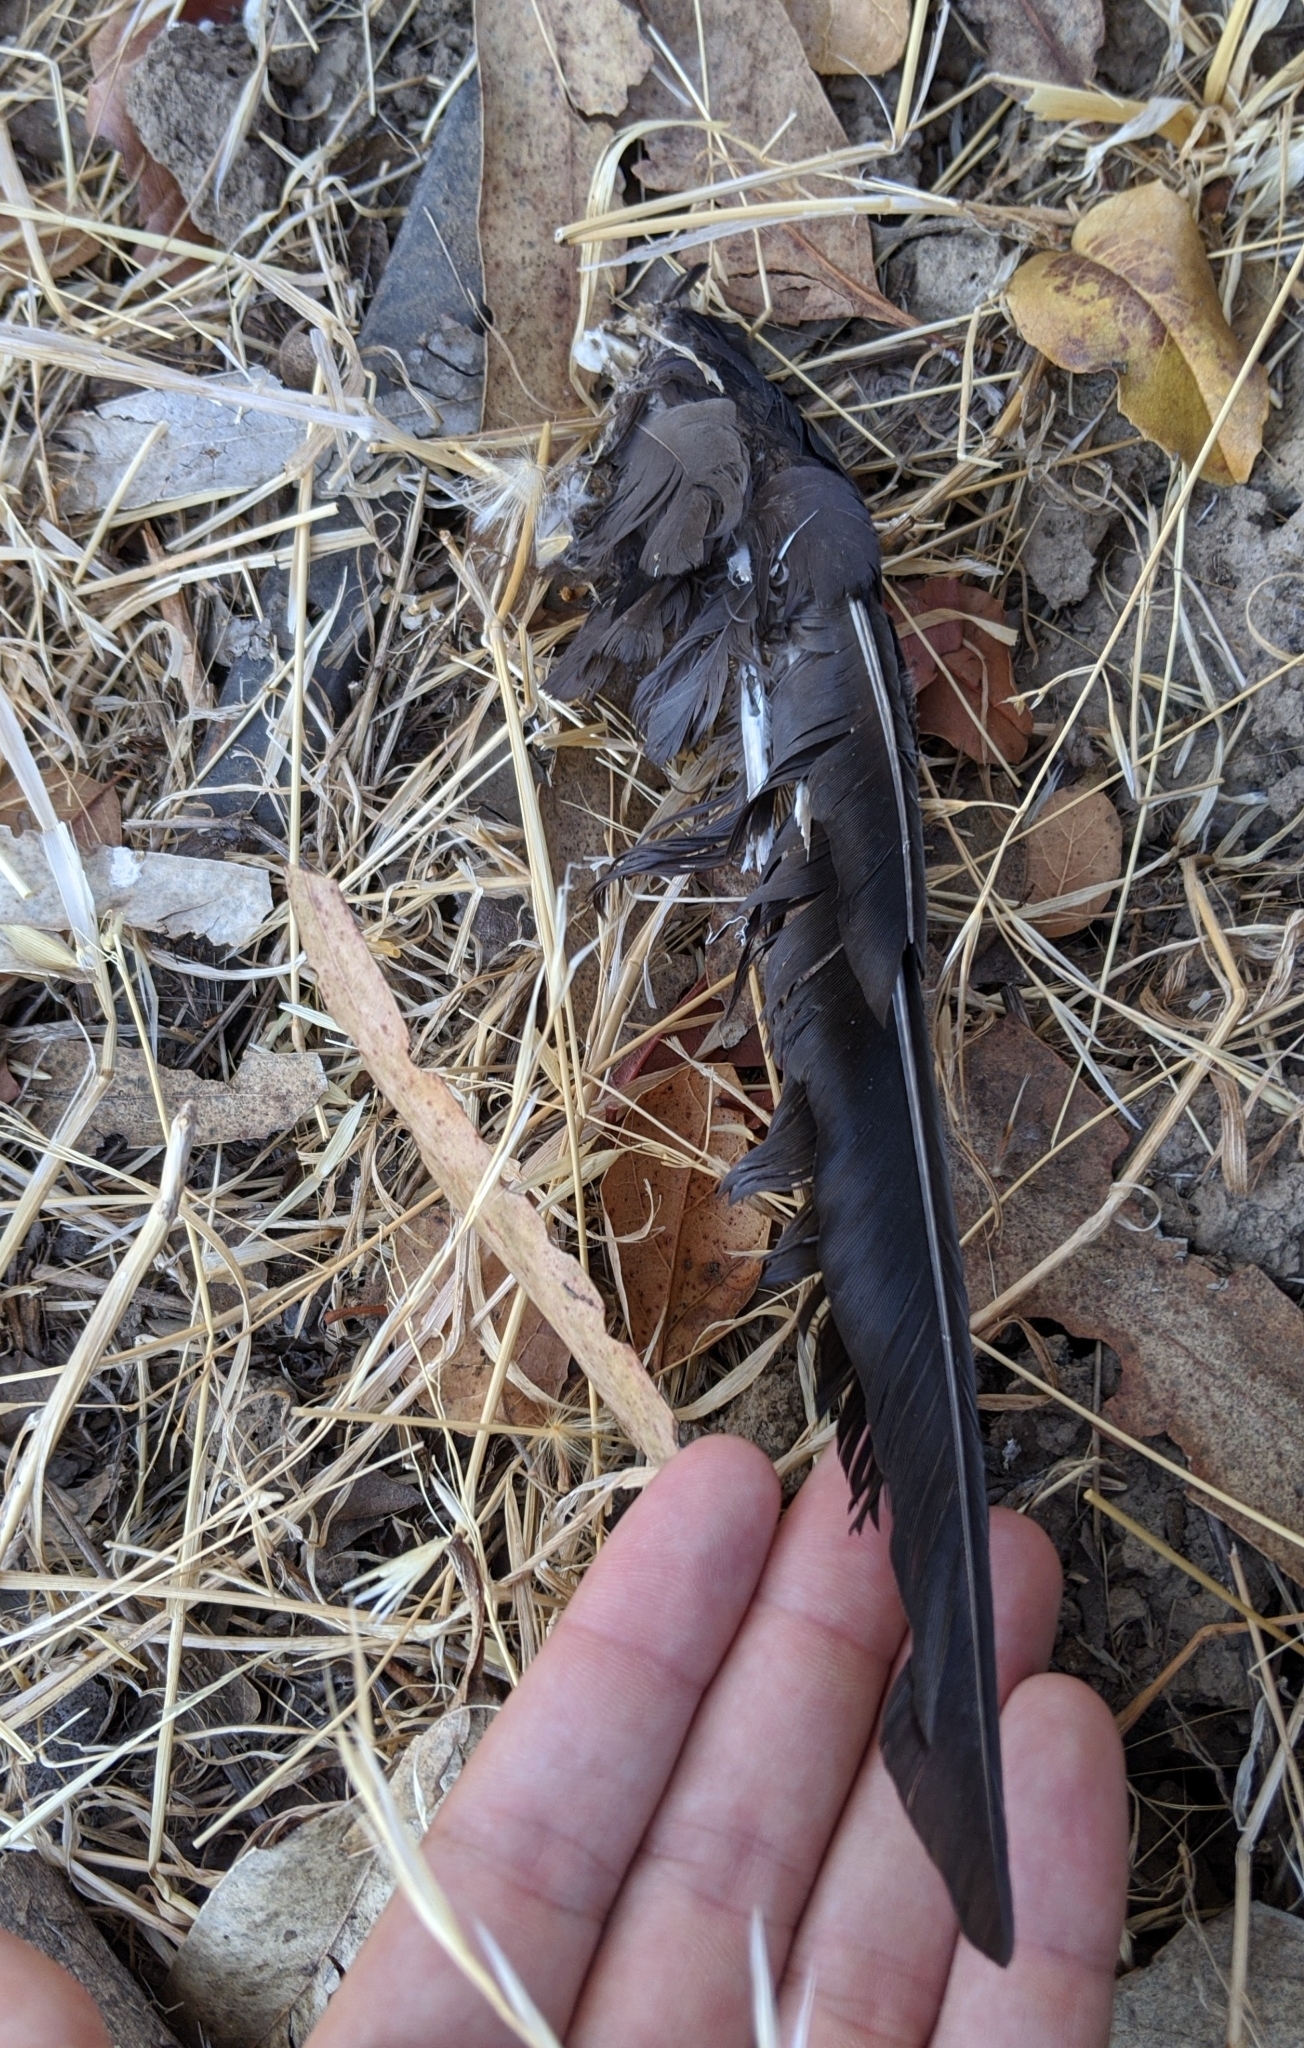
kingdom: Animalia
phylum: Chordata
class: Aves
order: Passeriformes
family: Corvidae
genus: Corvus
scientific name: Corvus brachyrhynchos
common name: American crow
